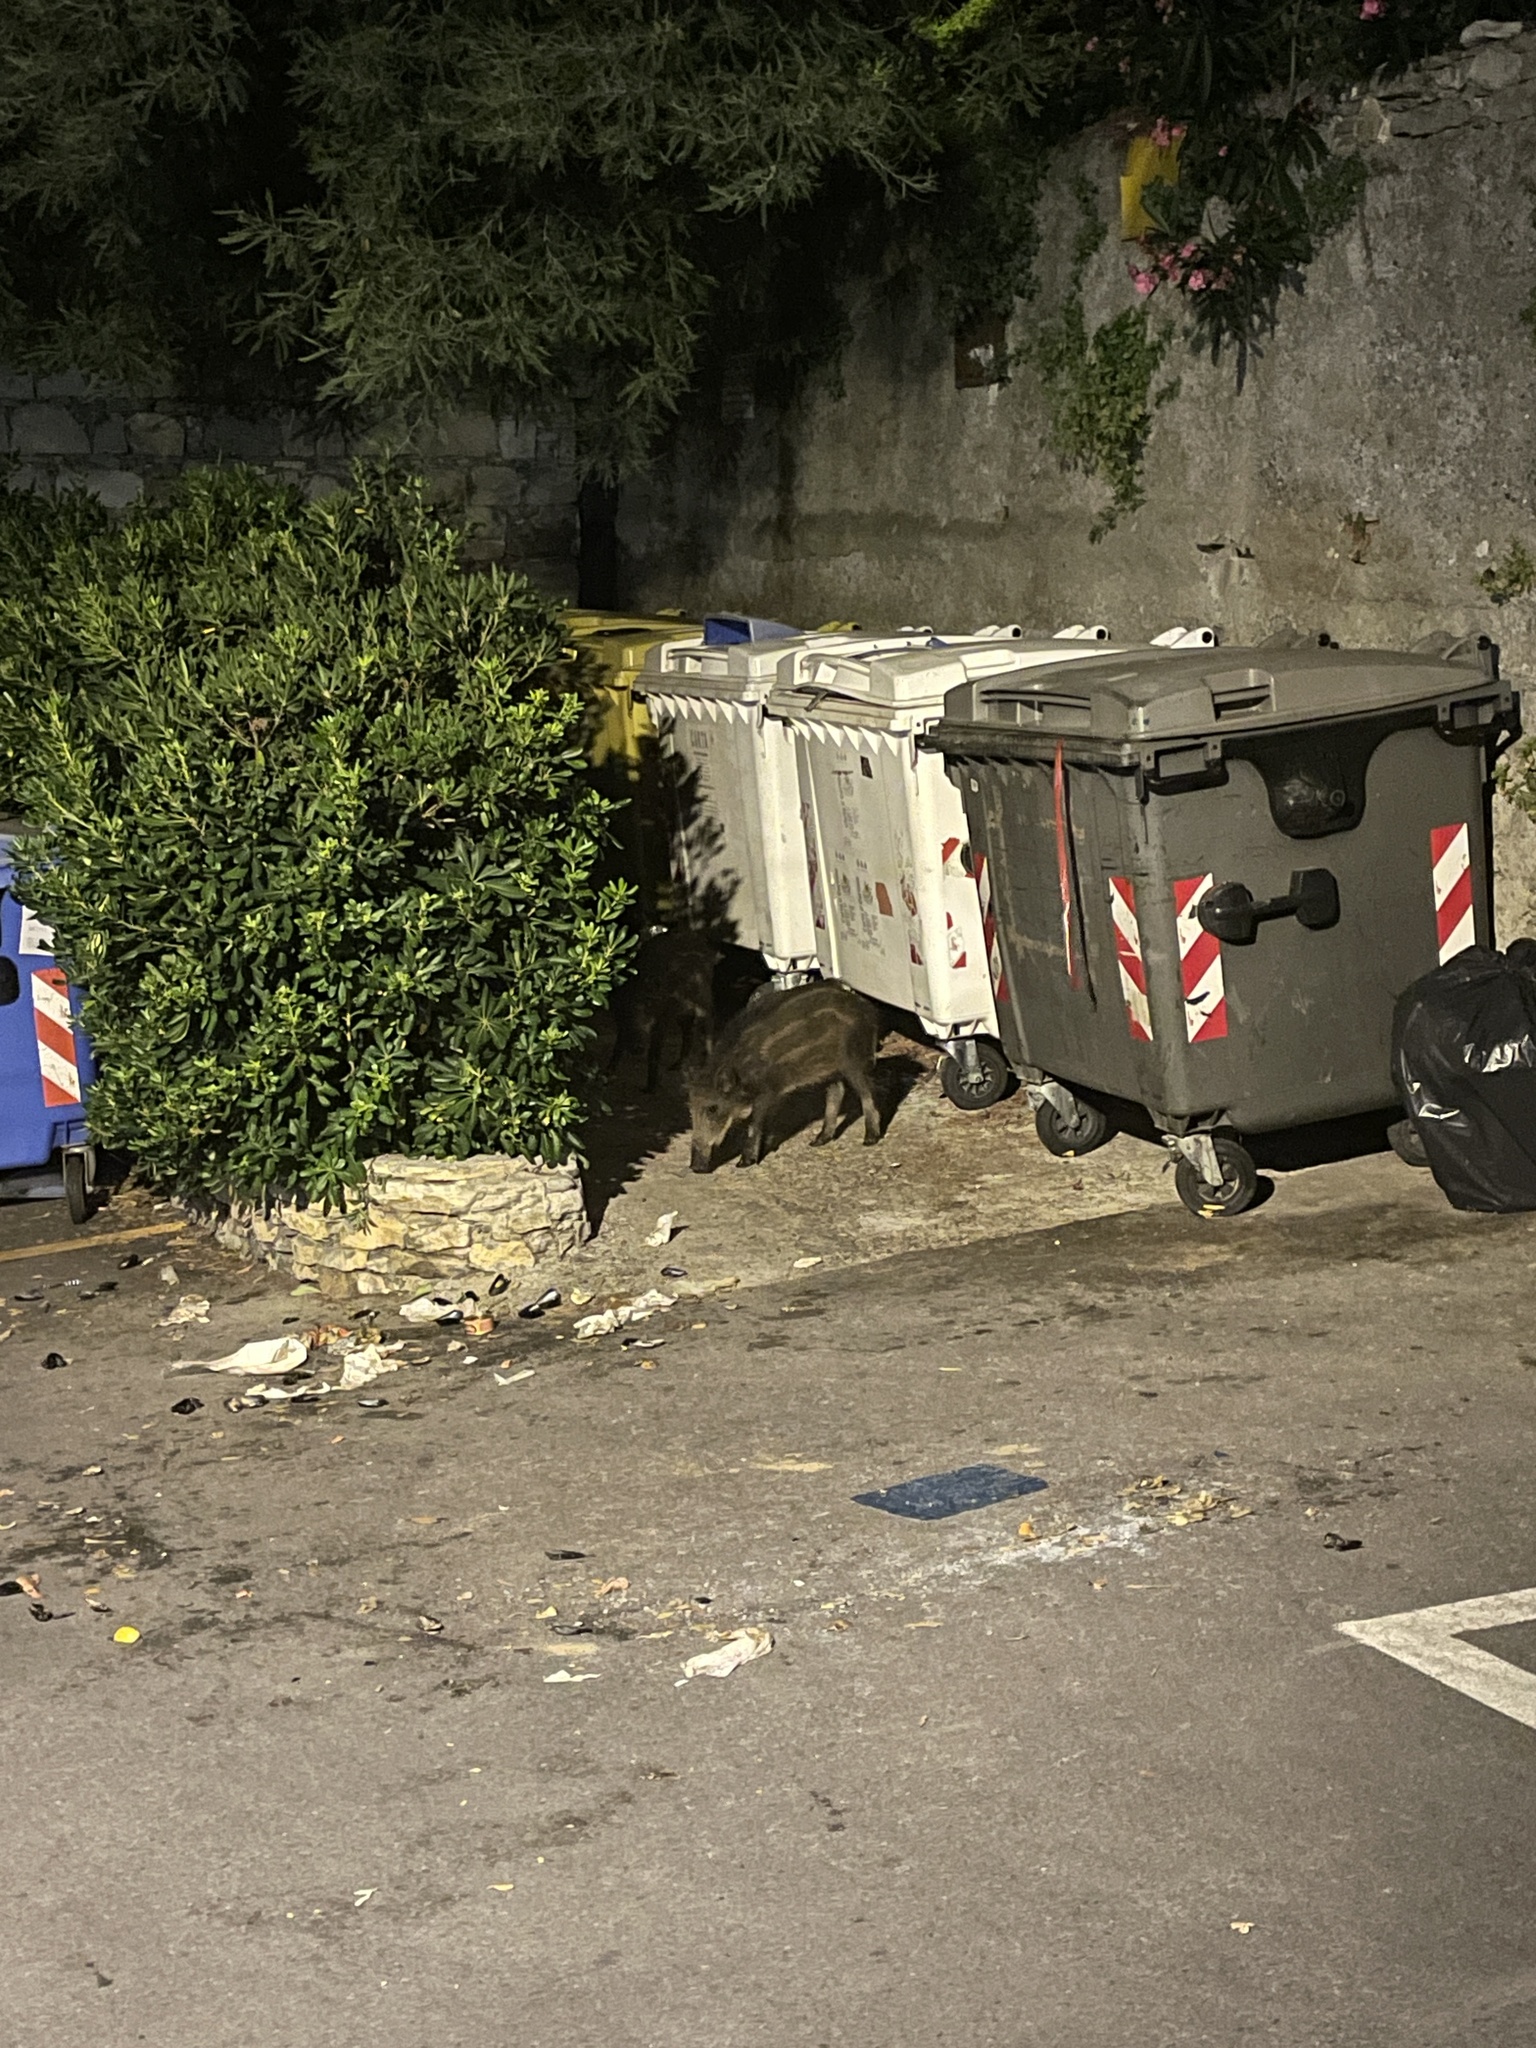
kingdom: Animalia
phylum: Chordata
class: Mammalia
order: Artiodactyla
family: Suidae
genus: Sus
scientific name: Sus scrofa
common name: Wild boar
